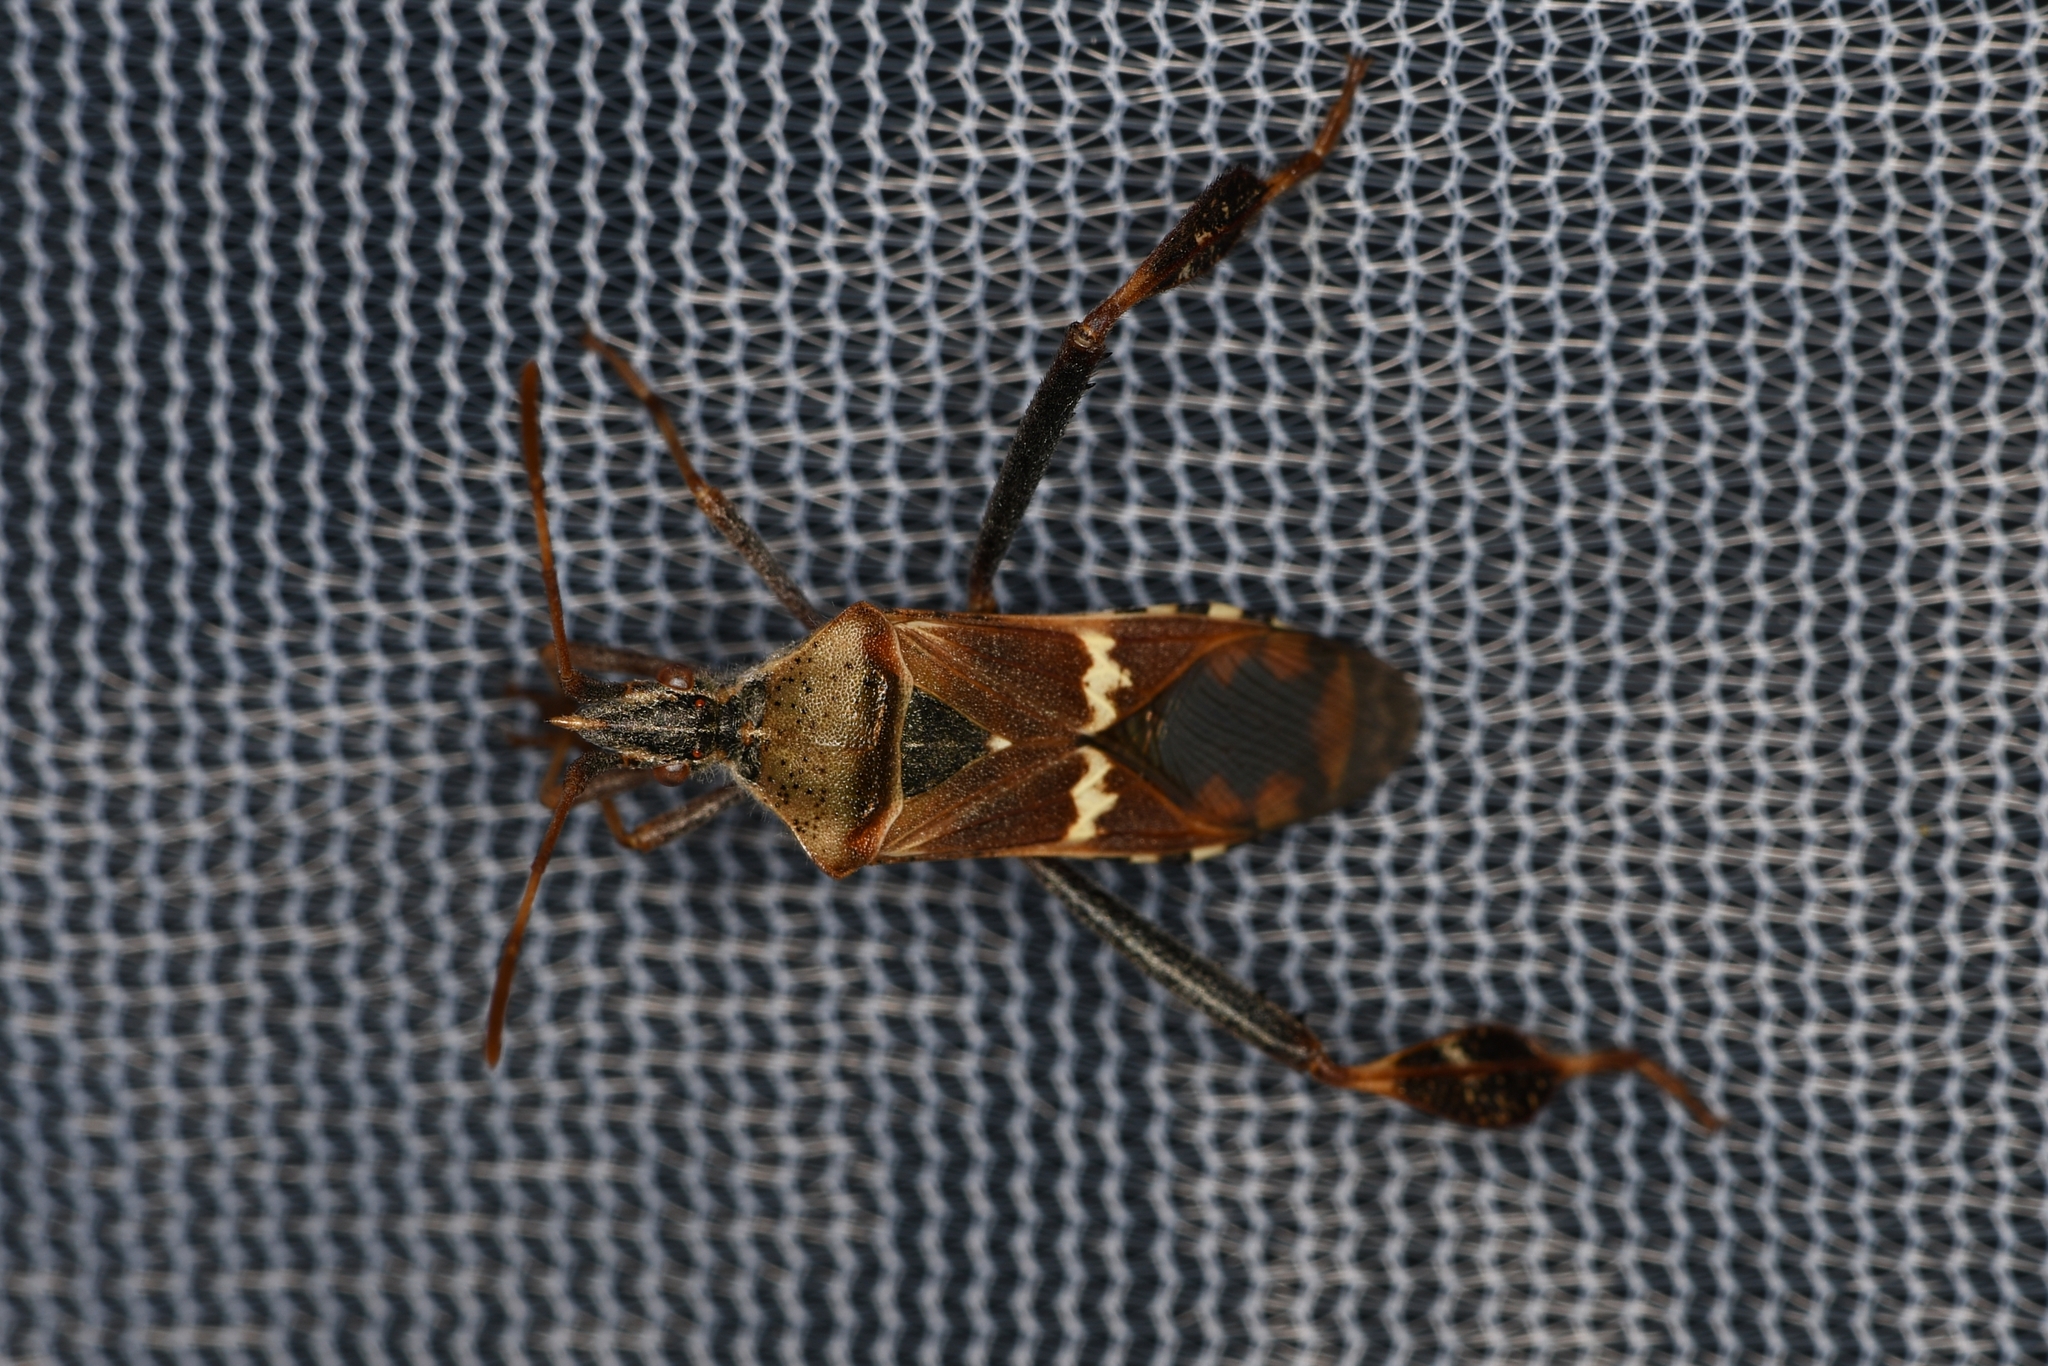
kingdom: Animalia
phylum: Arthropoda
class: Insecta
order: Hemiptera
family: Coreidae
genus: Leptoglossus
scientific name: Leptoglossus clypealis
